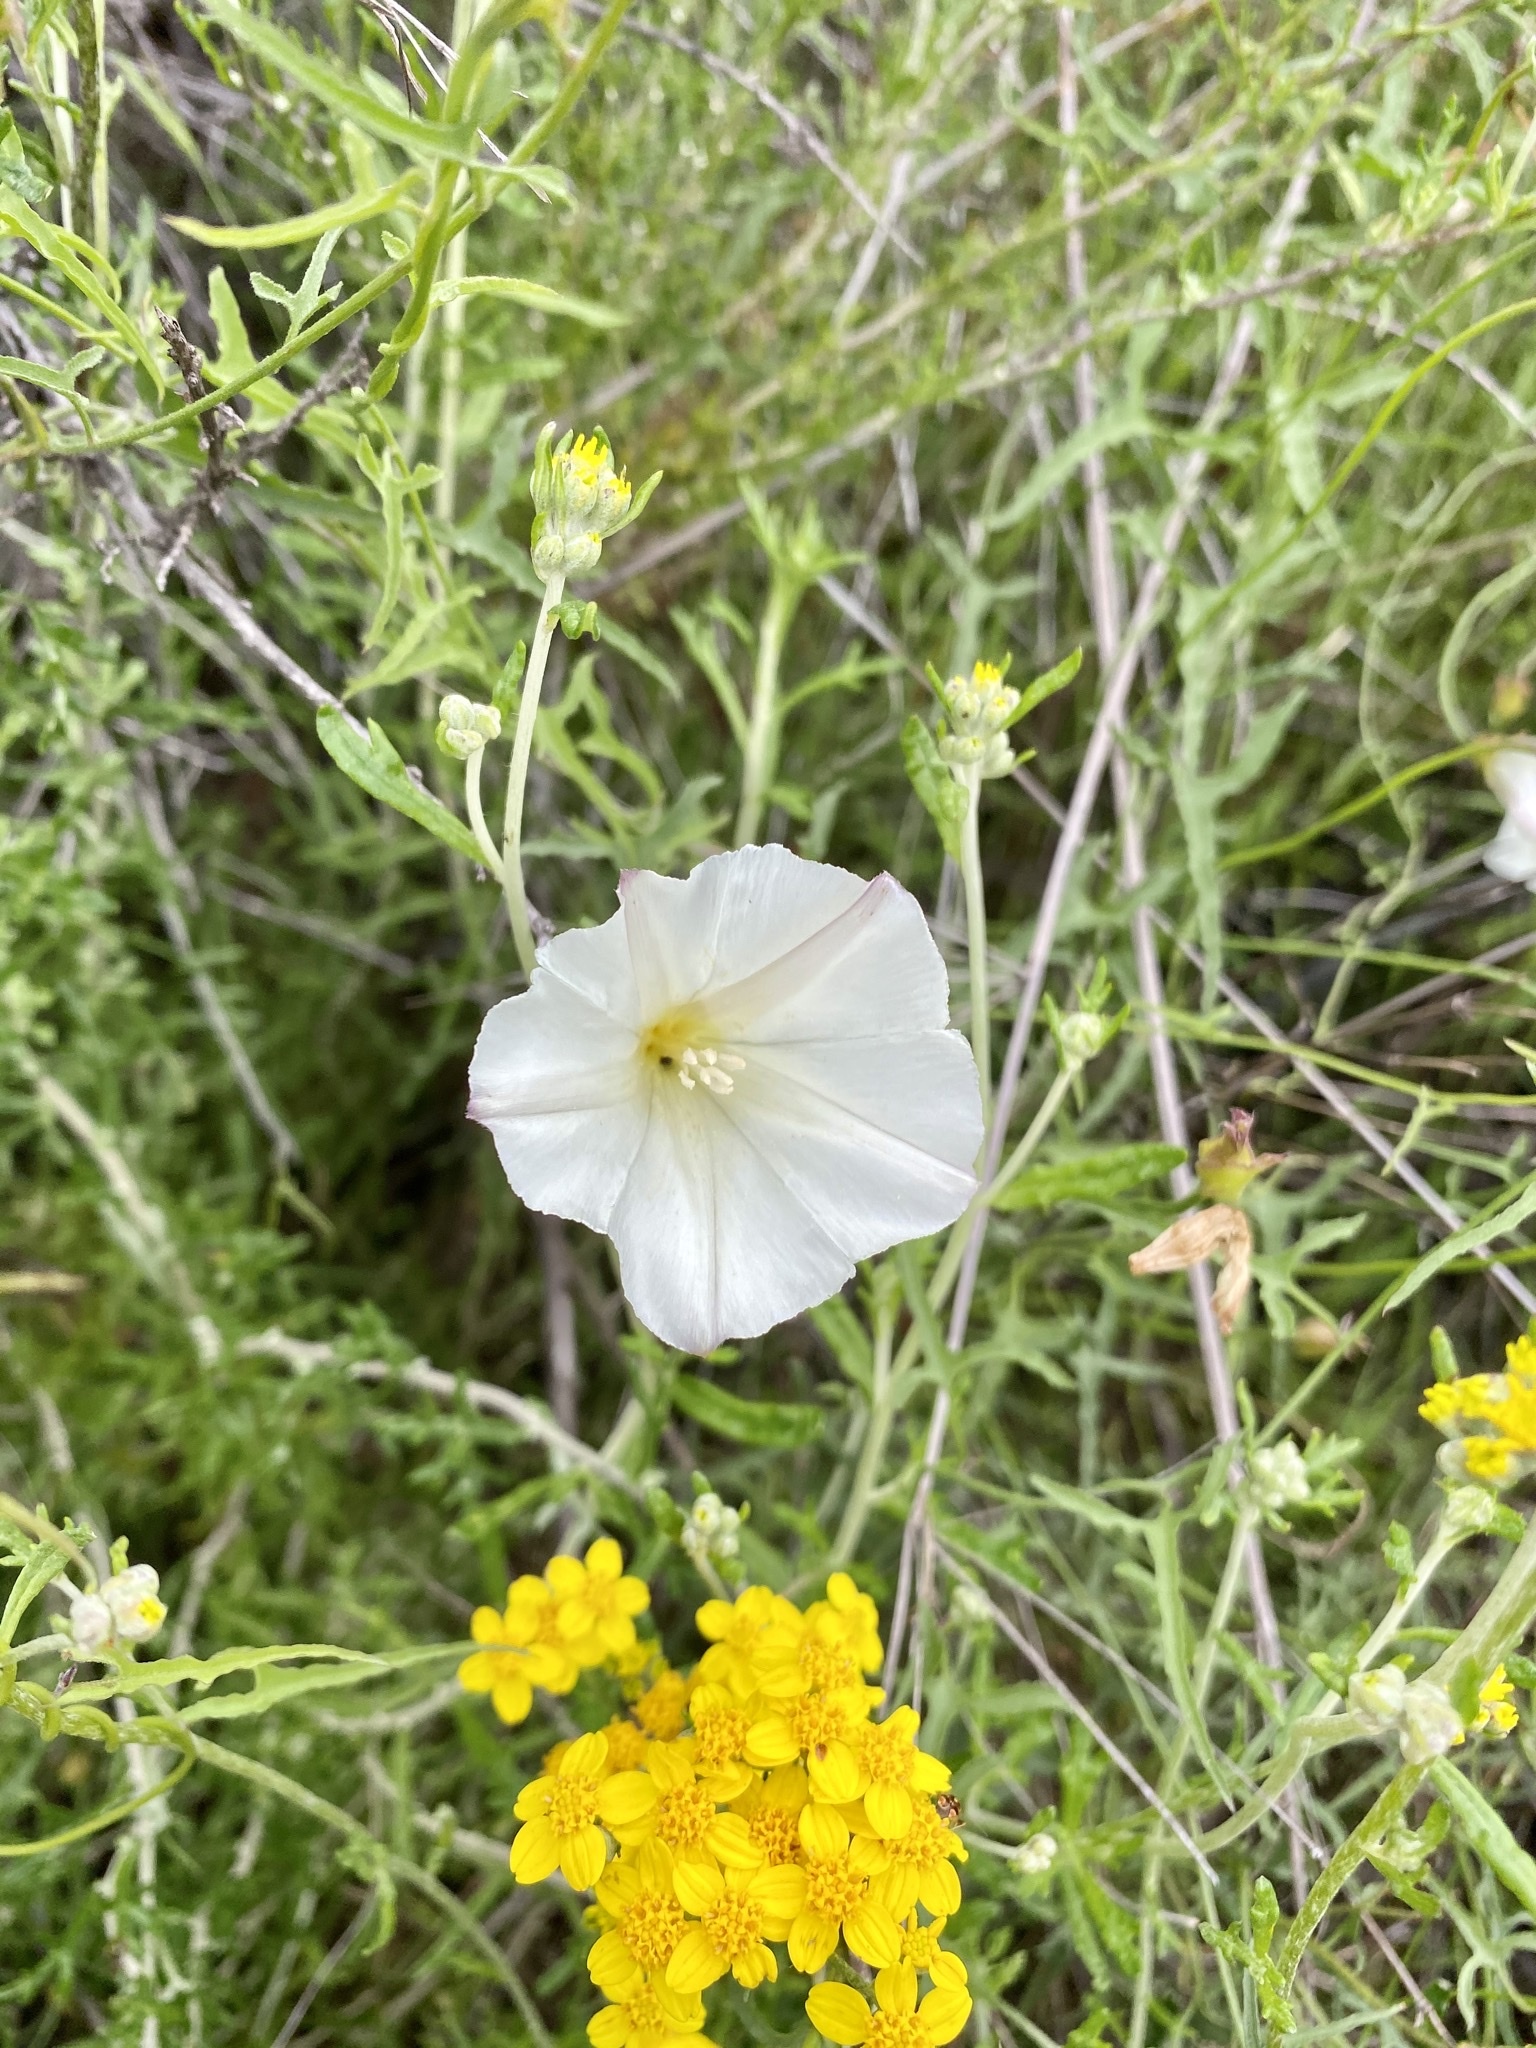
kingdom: Plantae
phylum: Tracheophyta
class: Magnoliopsida
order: Solanales
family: Convolvulaceae
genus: Calystegia
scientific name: Calystegia macrostegia
